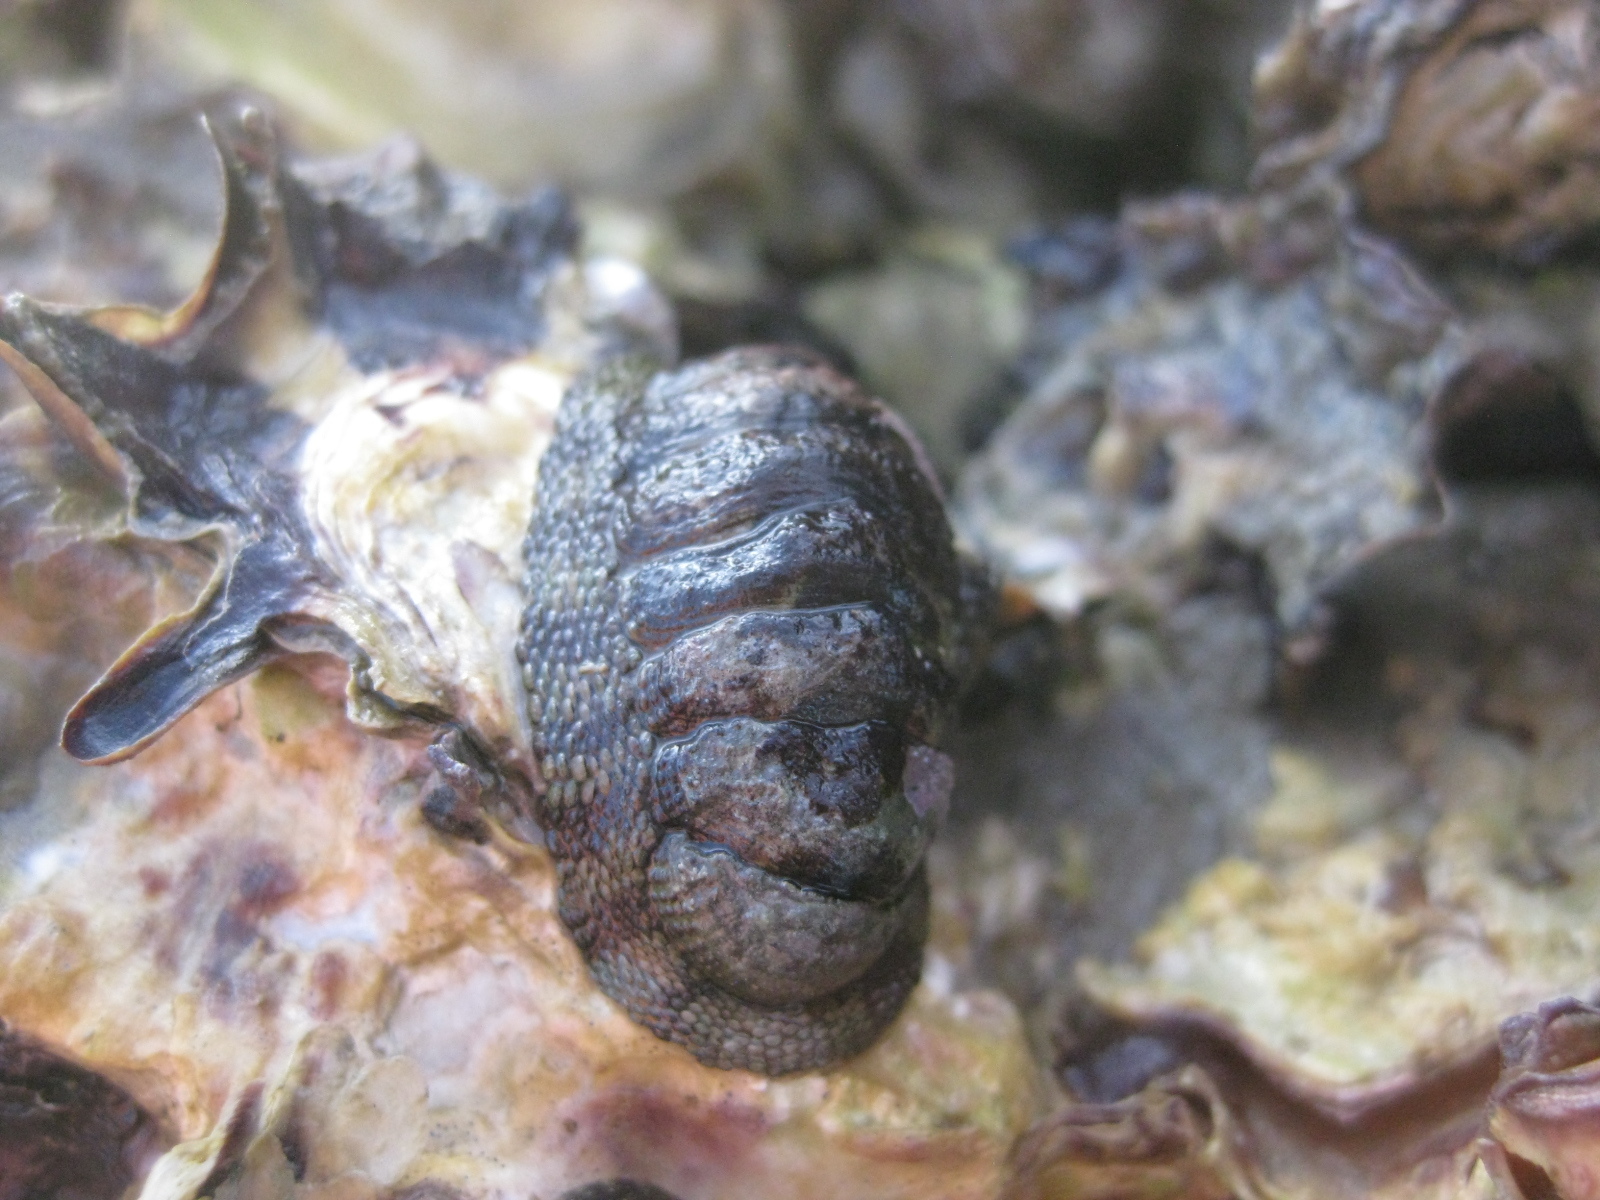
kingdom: Animalia
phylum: Mollusca
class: Polyplacophora
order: Chitonida
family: Chitonidae
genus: Sypharochiton
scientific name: Sypharochiton pelliserpentis
